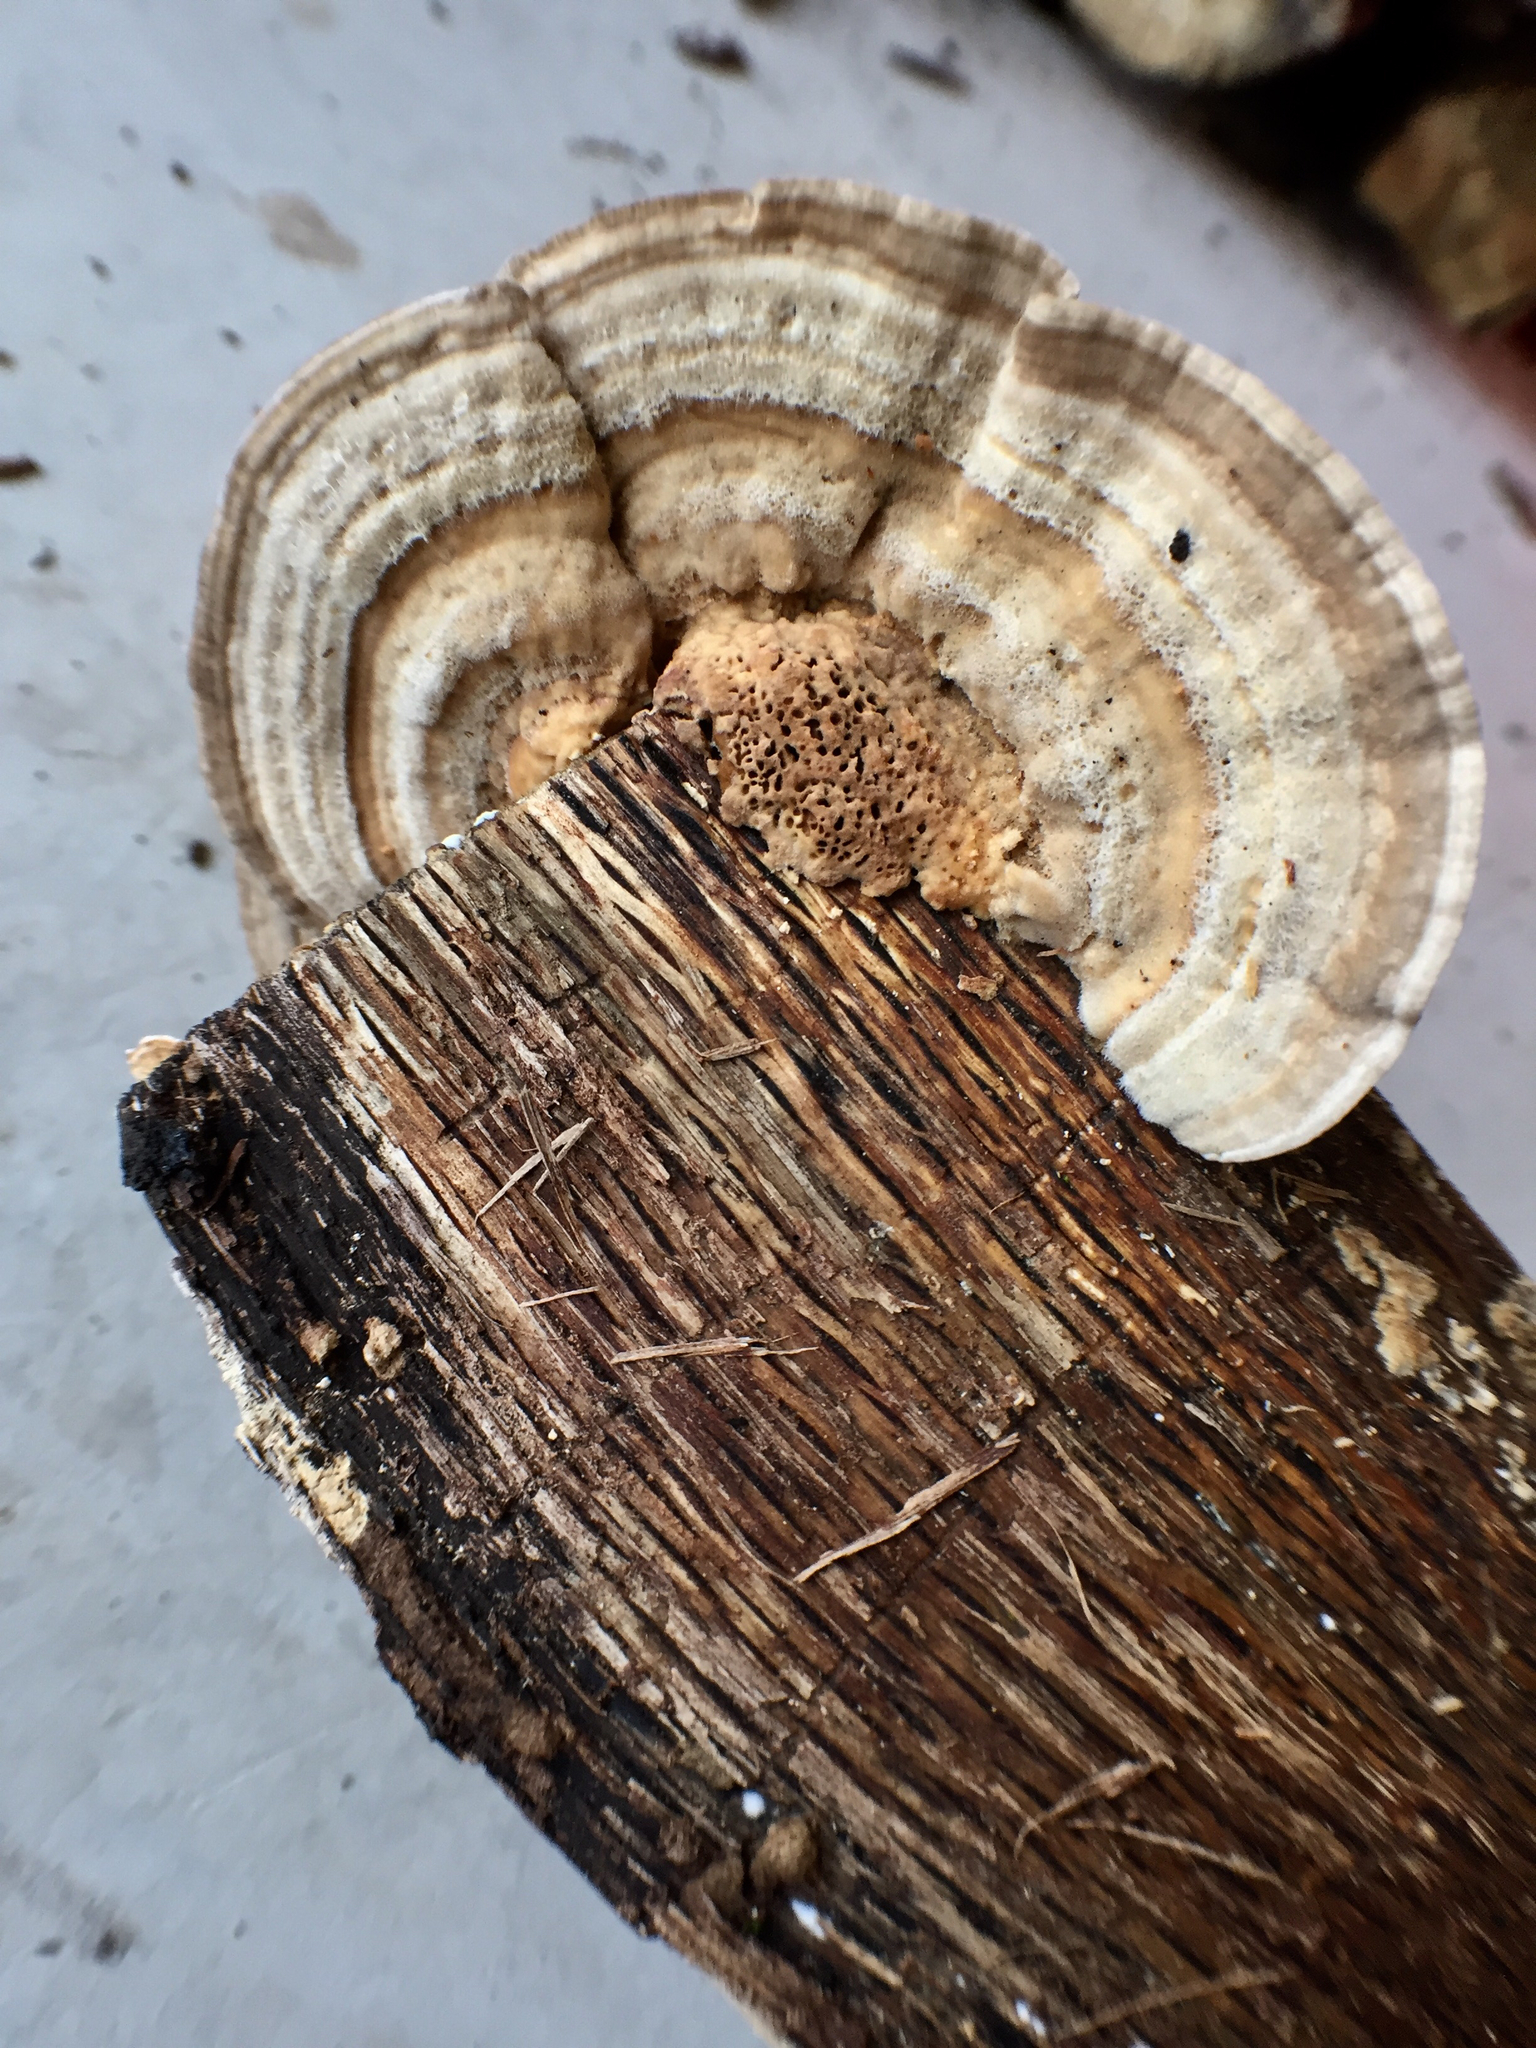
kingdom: Fungi
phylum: Basidiomycota
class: Agaricomycetes
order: Polyporales
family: Polyporaceae
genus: Lenzites
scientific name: Lenzites betulinus
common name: Birch mazegill
